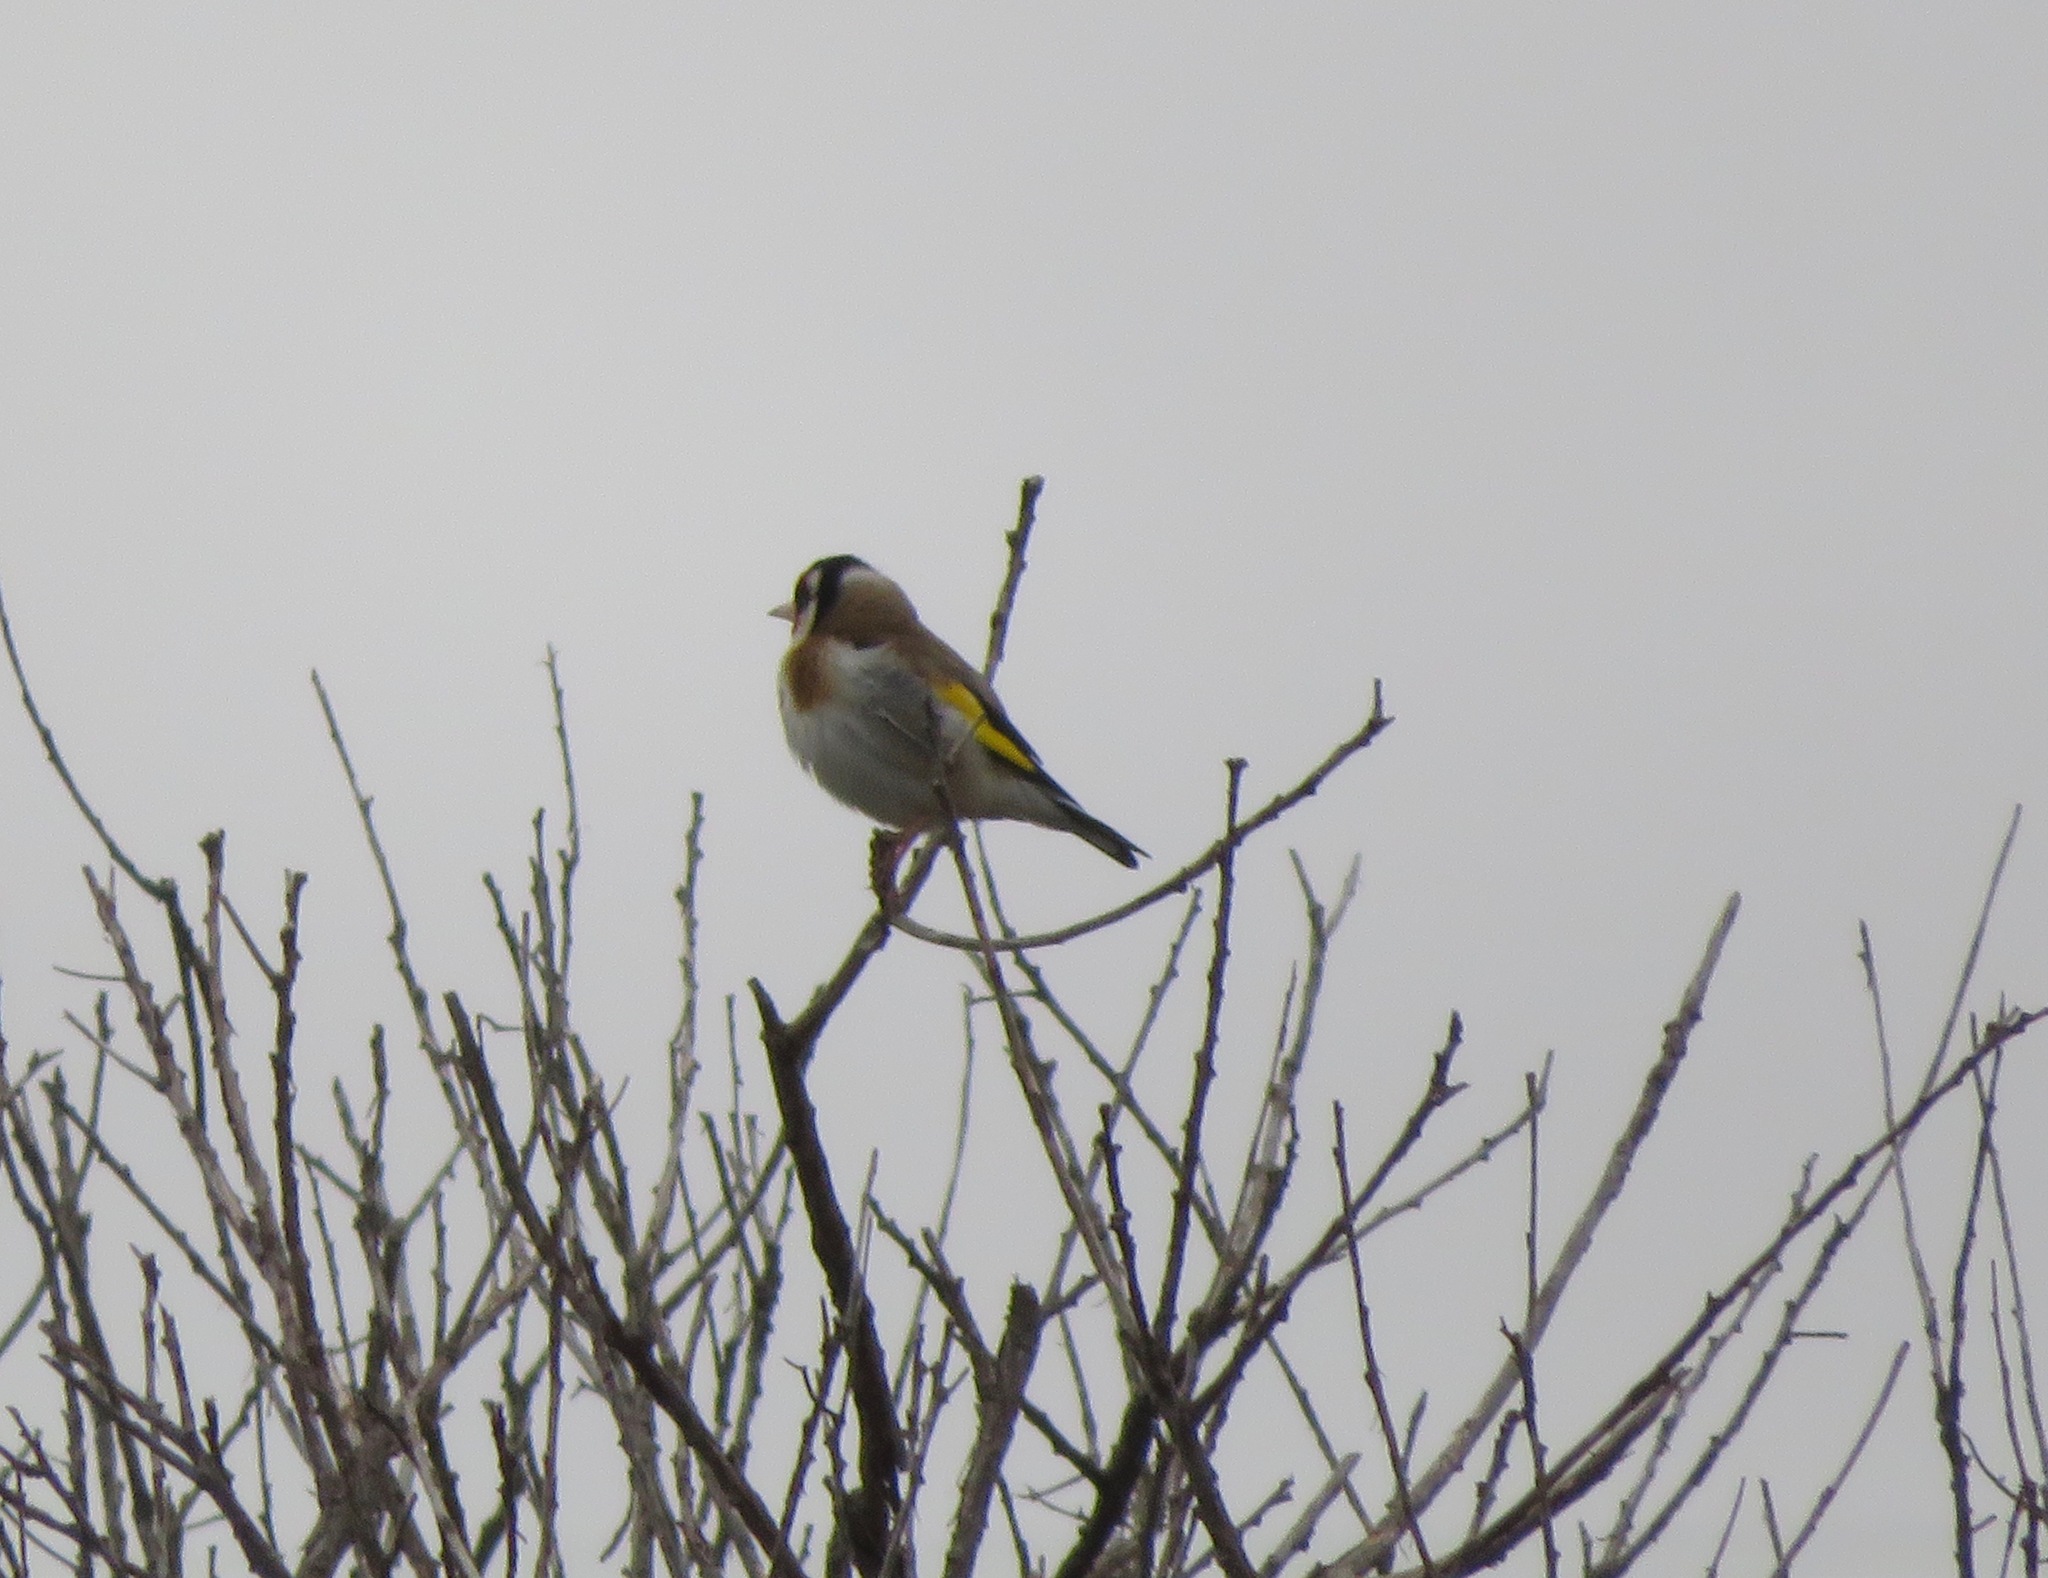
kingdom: Animalia
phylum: Chordata
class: Aves
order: Passeriformes
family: Fringillidae
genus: Carduelis
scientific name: Carduelis carduelis
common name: European goldfinch
